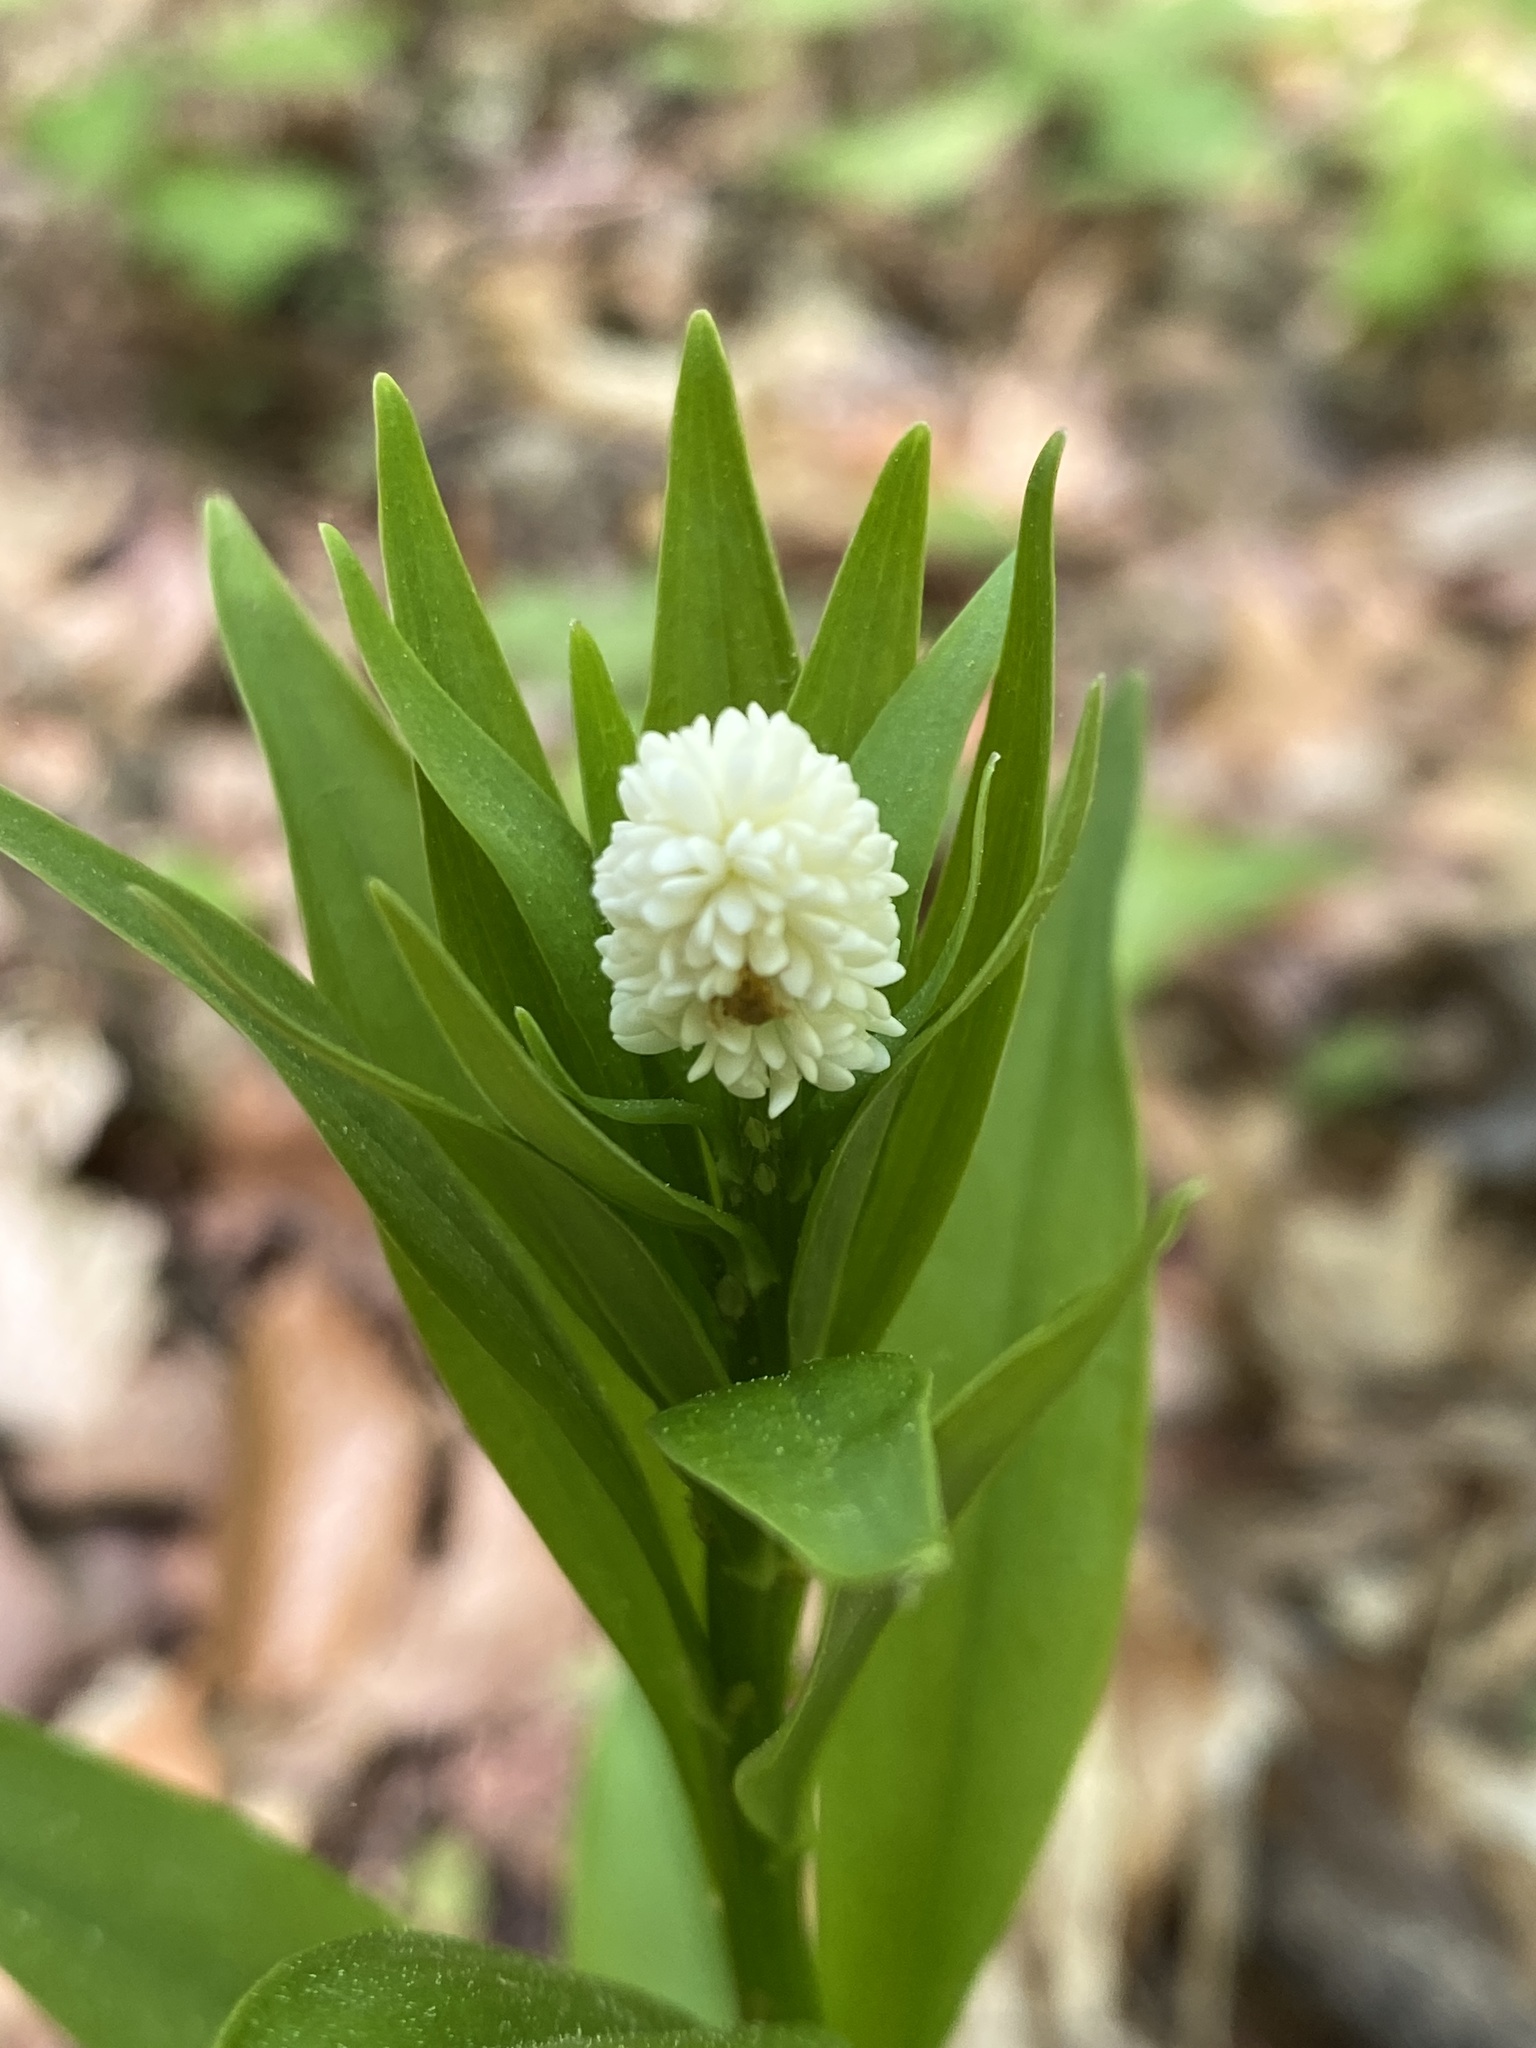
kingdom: Plantae
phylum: Tracheophyta
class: Liliopsida
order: Liliales
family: Melanthiaceae
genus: Chamaelirium
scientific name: Chamaelirium luteum
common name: Fairy-wand
